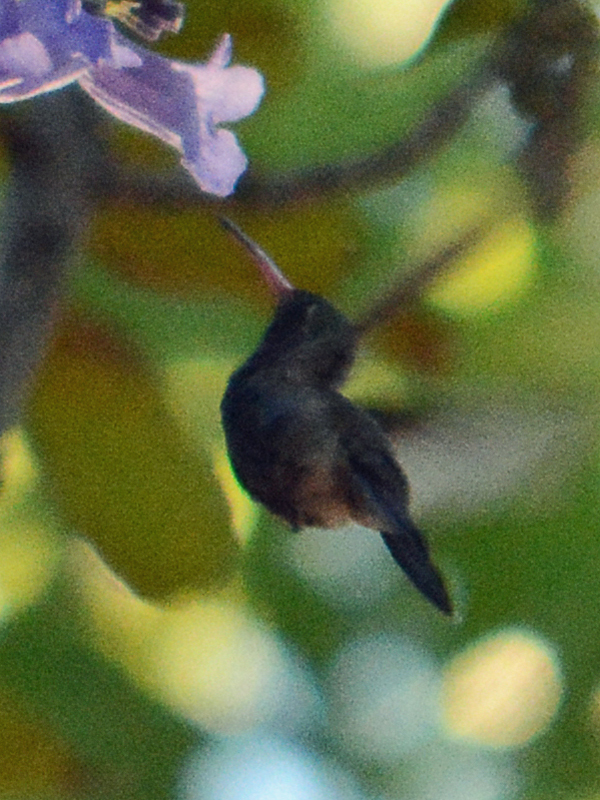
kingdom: Animalia
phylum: Chordata
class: Aves
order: Apodiformes
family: Trochilidae
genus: Cynanthus
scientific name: Cynanthus latirostris
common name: Broad-billed hummingbird
